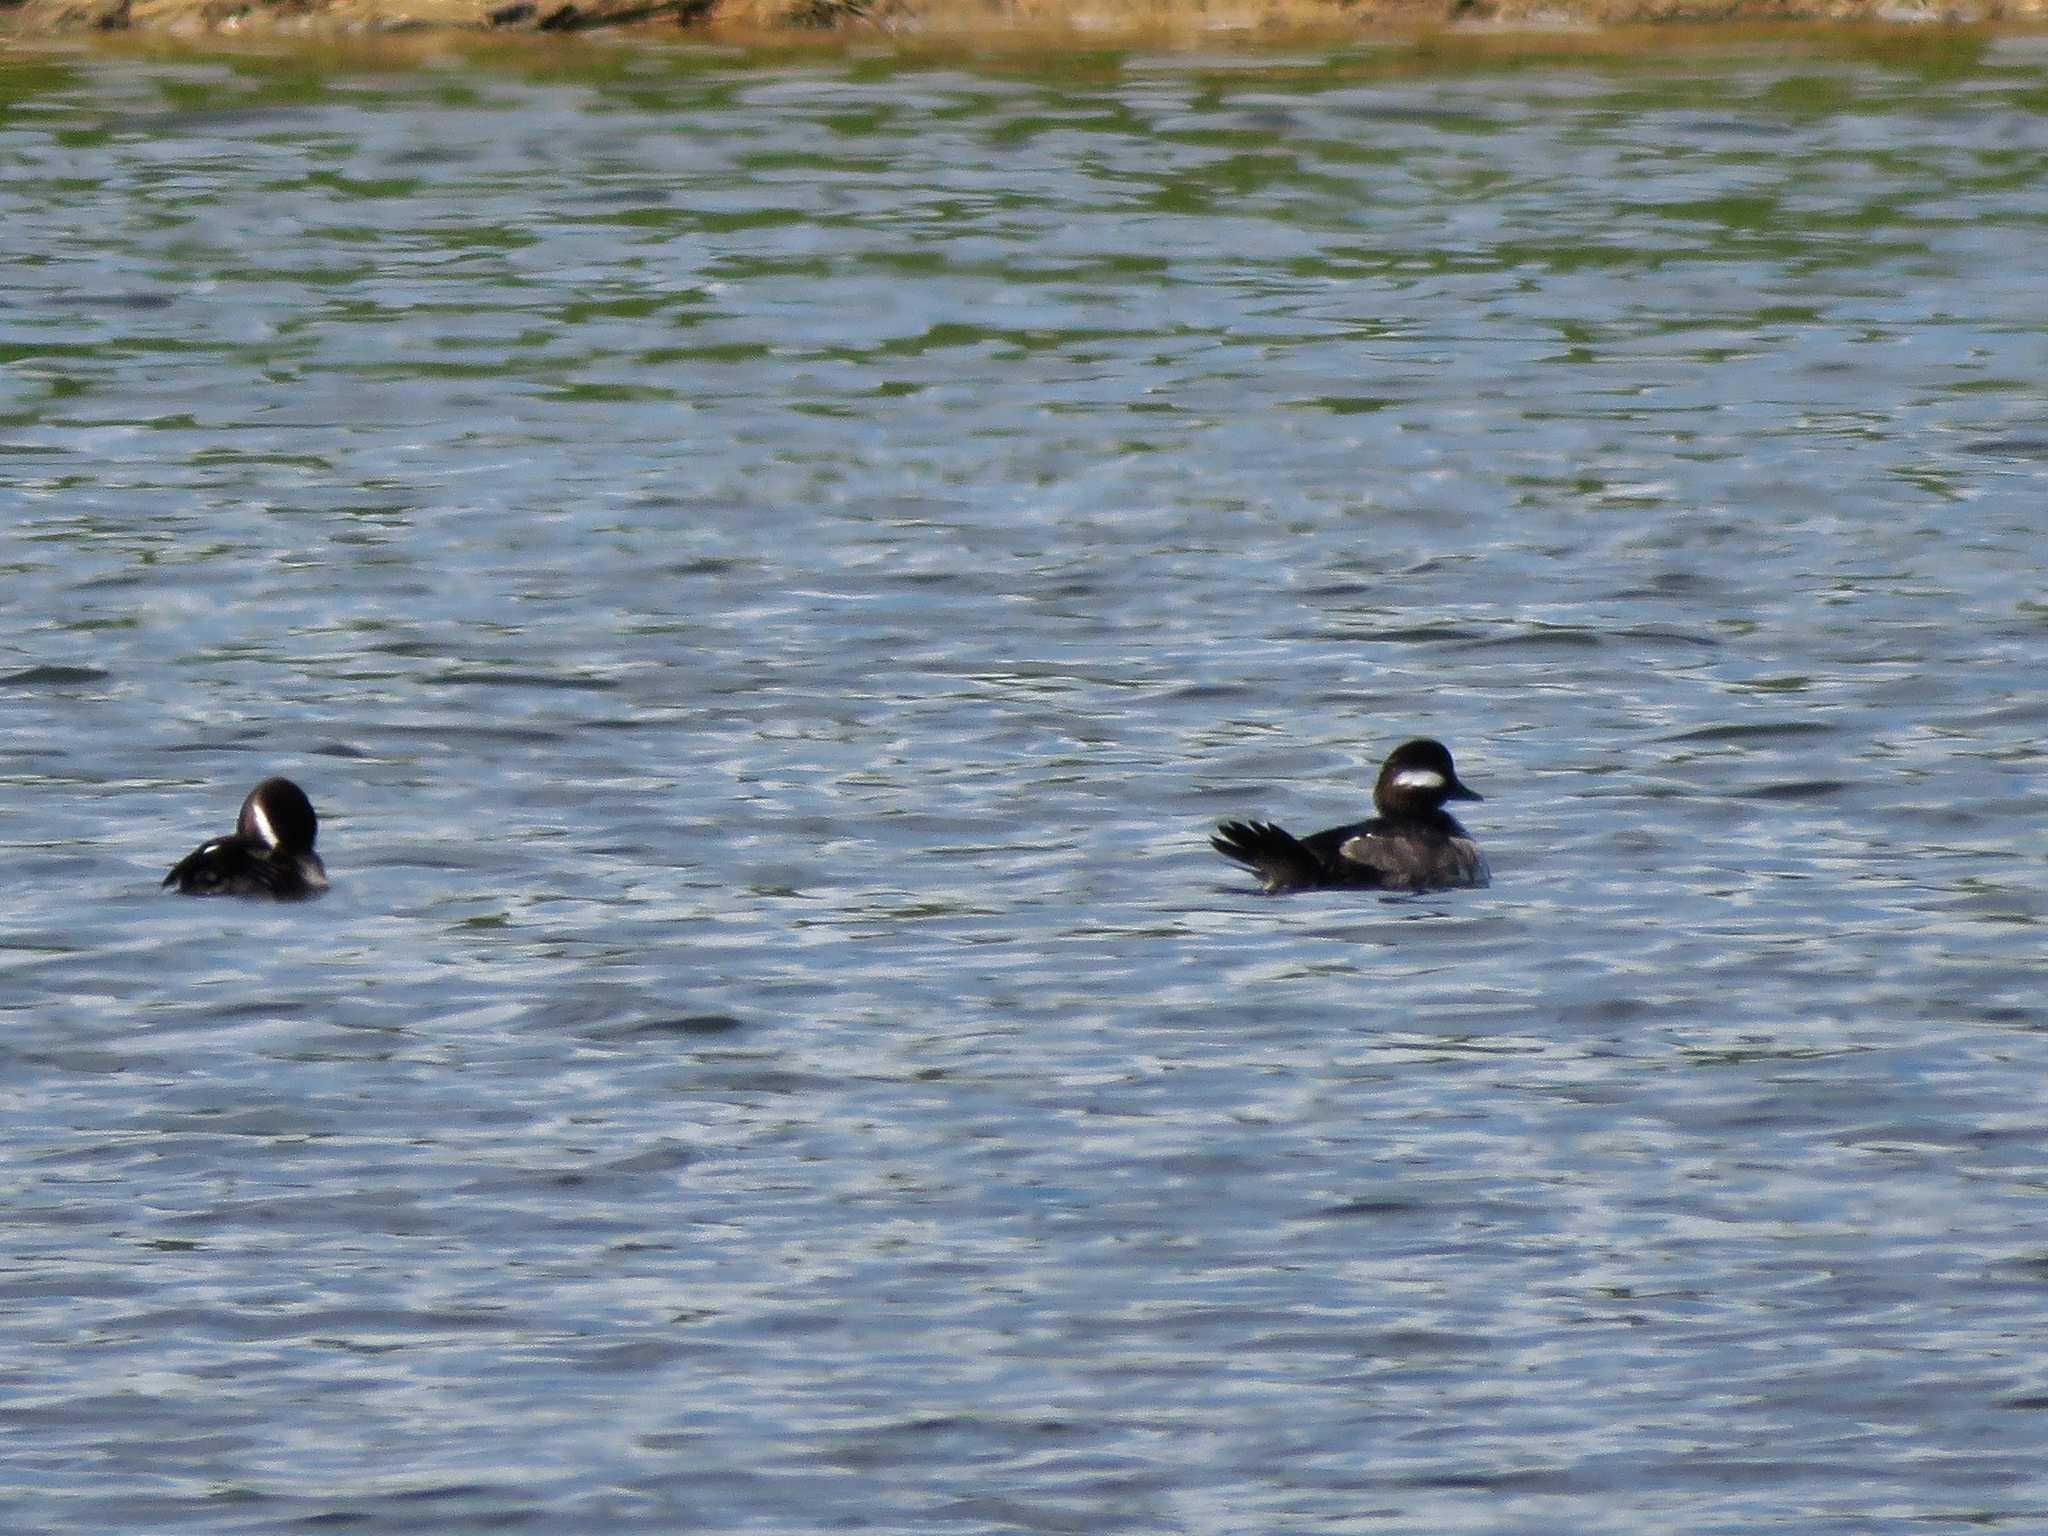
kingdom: Animalia
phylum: Chordata
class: Aves
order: Anseriformes
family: Anatidae
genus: Bucephala
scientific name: Bucephala albeola
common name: Bufflehead
